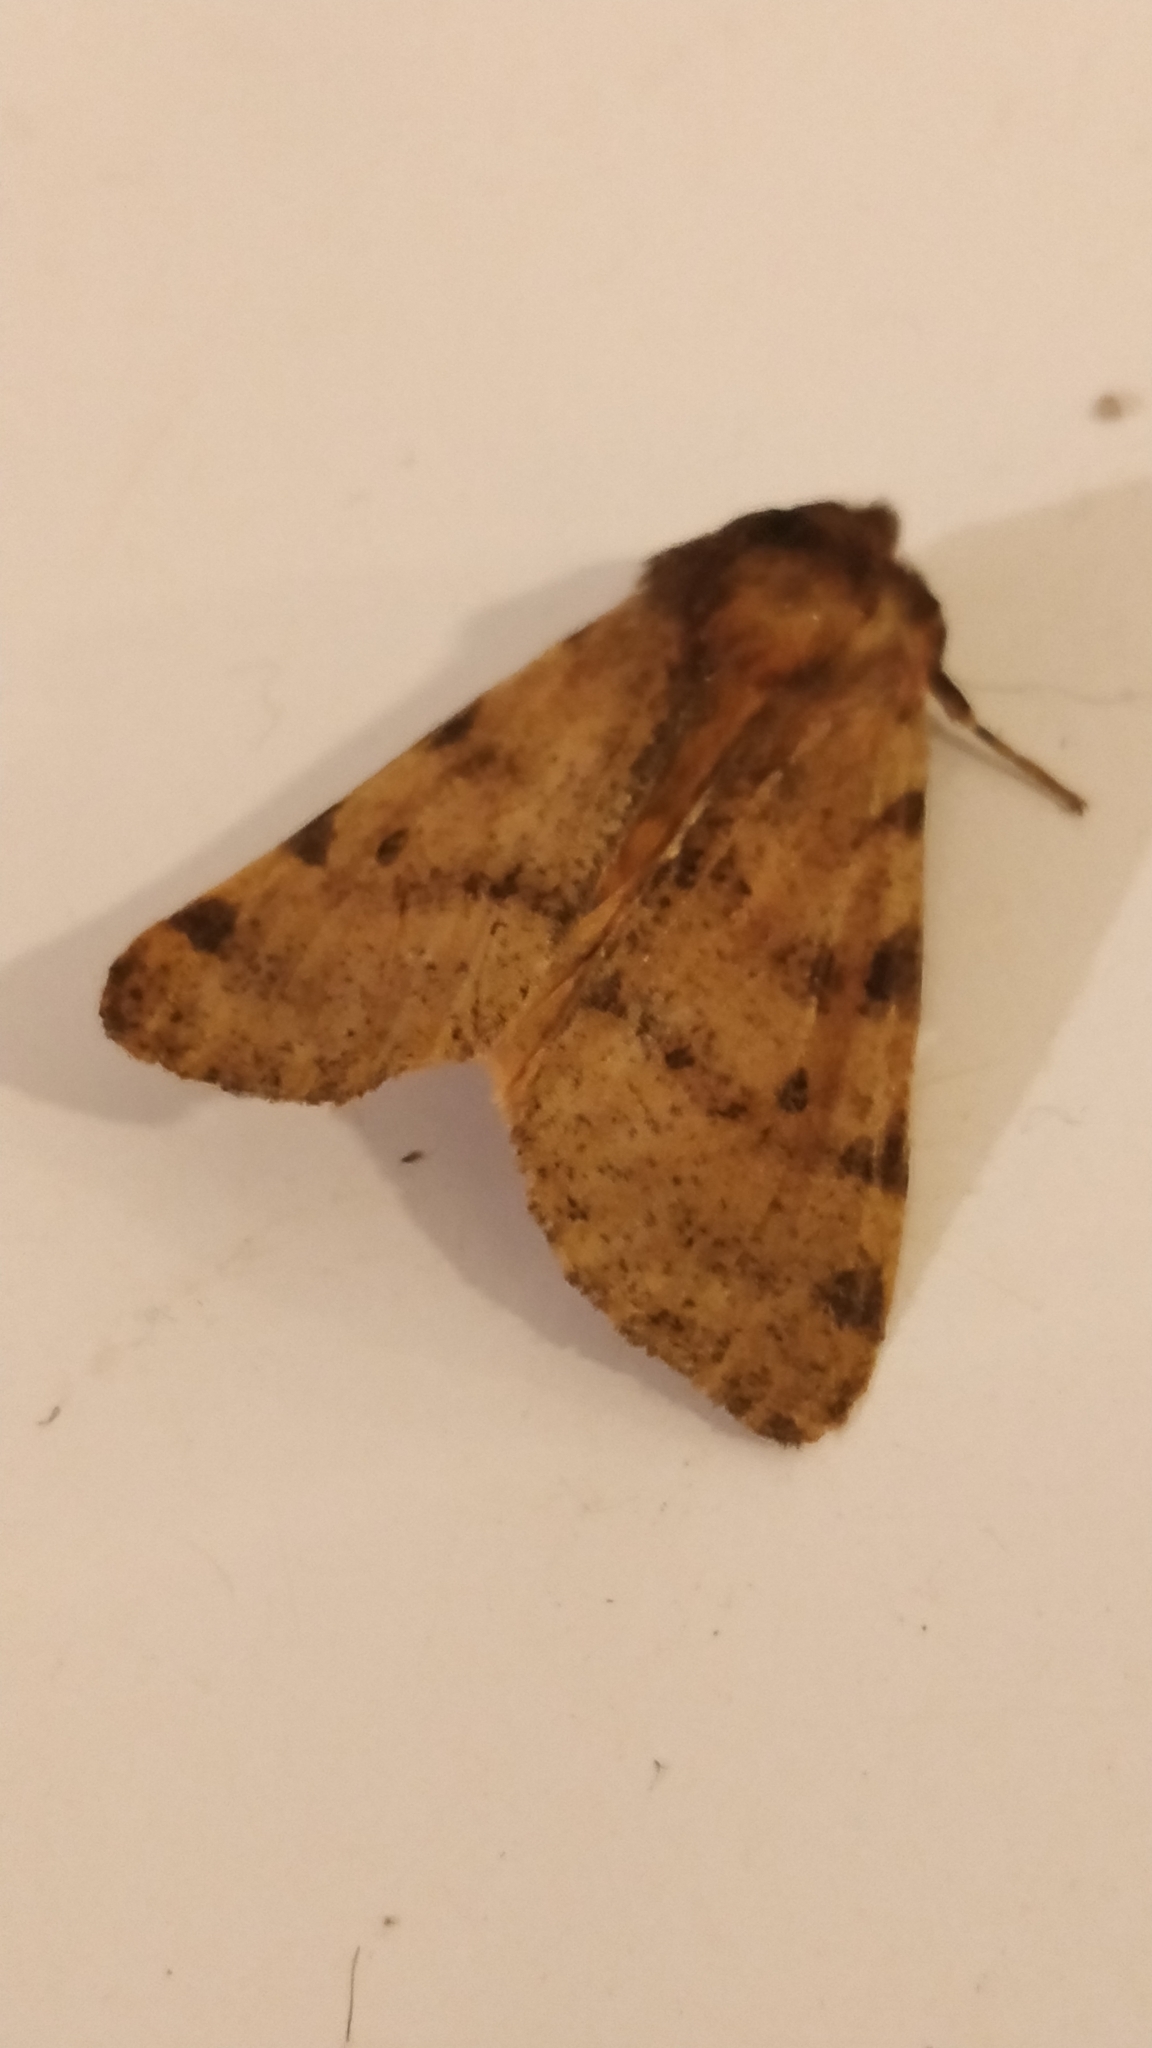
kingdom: Animalia
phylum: Arthropoda
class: Insecta
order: Lepidoptera
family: Erebidae
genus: Canararctia
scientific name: Canararctia rufescens
